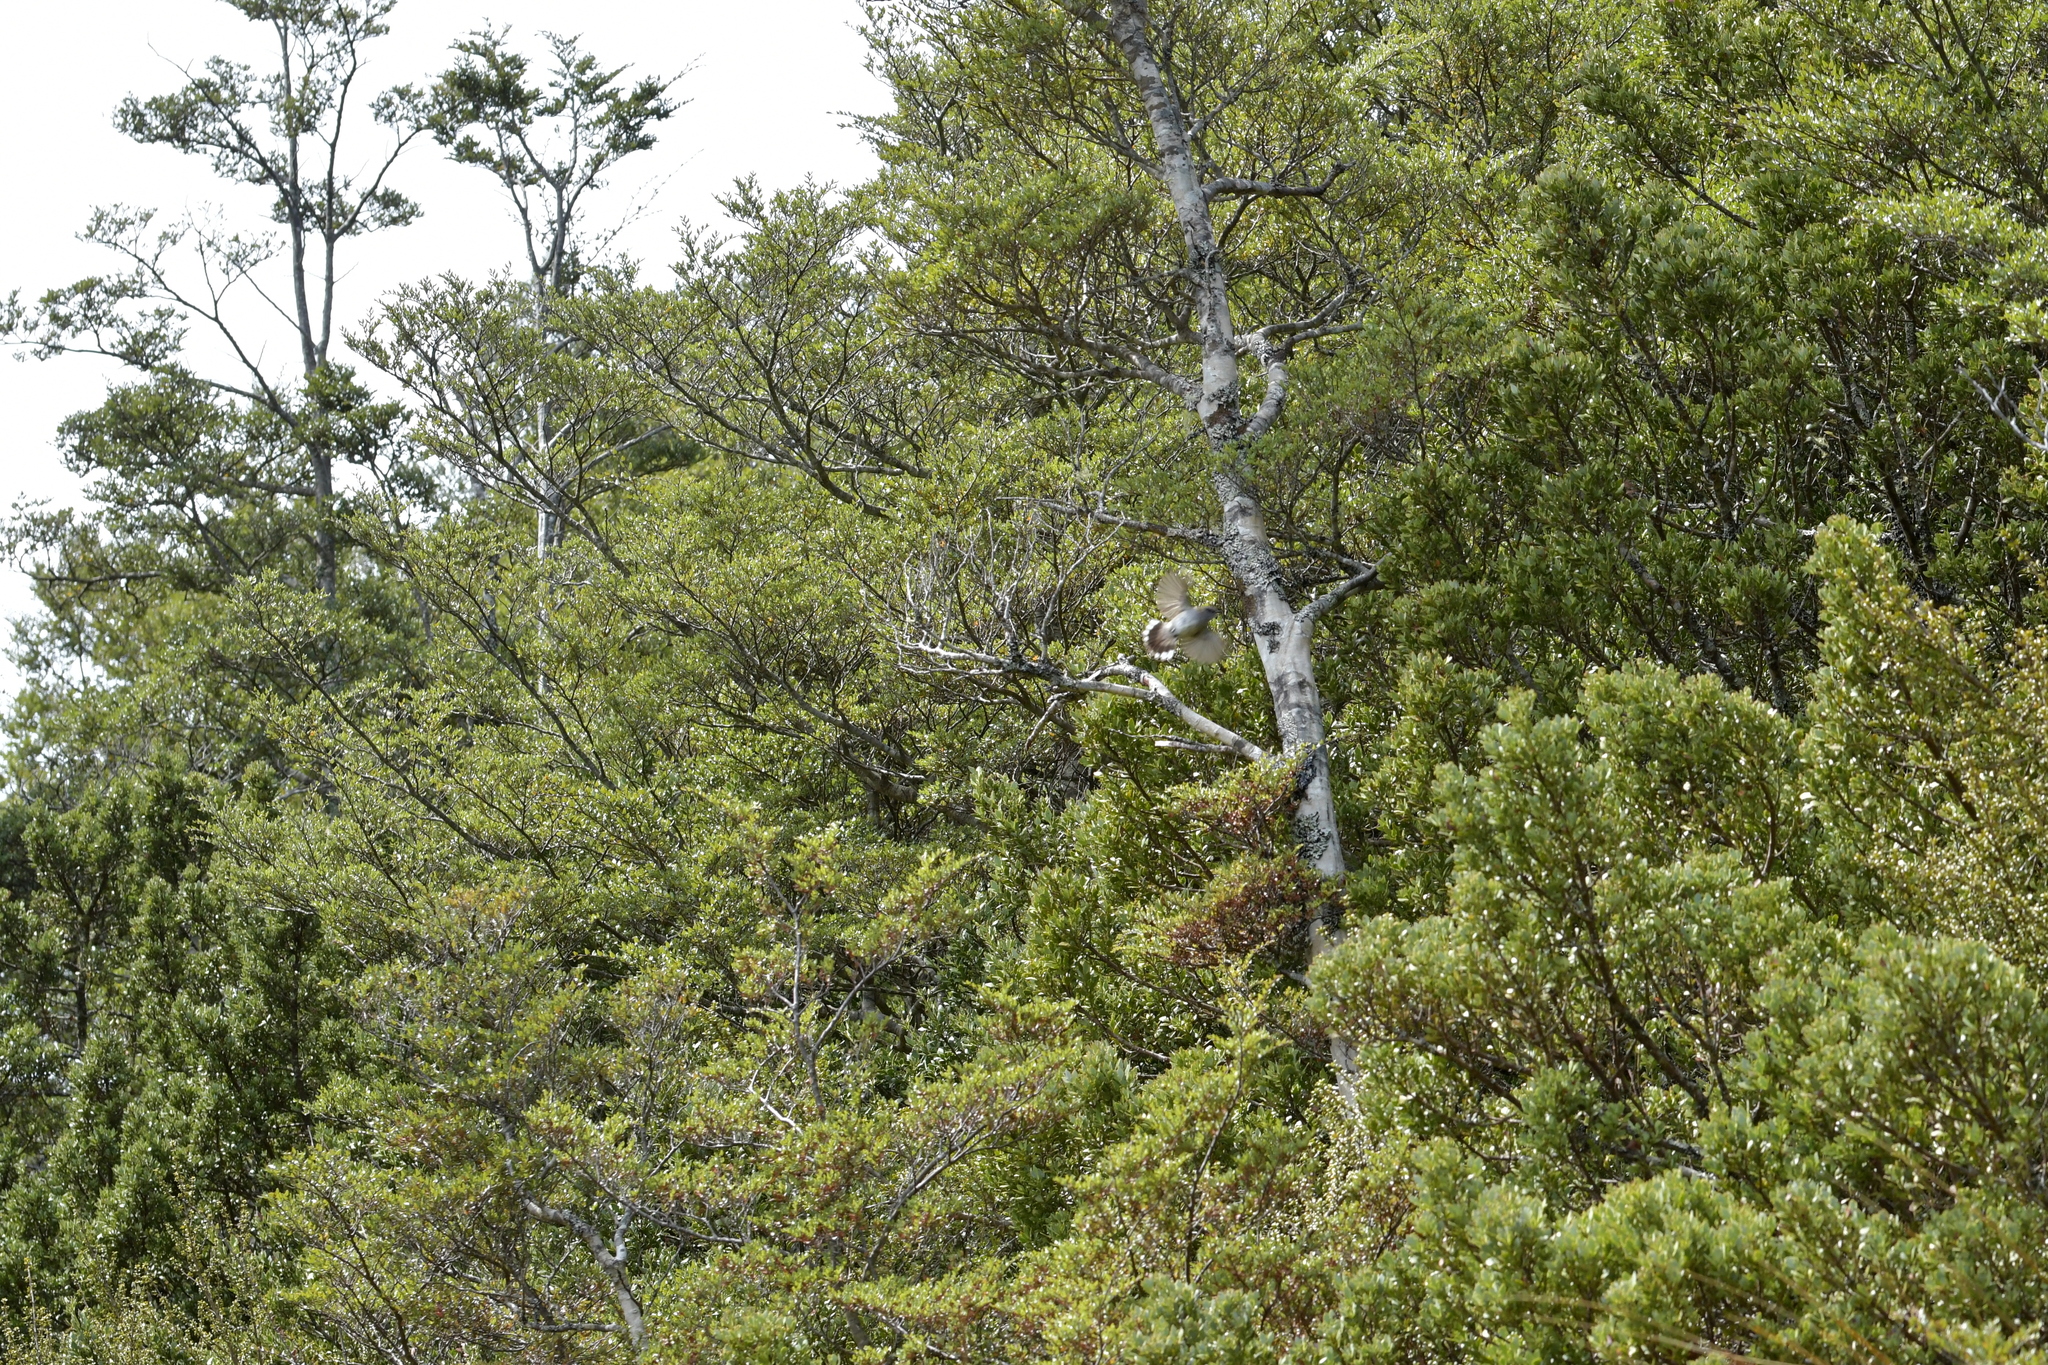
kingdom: Animalia
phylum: Chordata
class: Aves
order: Passeriformes
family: Acanthizidae
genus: Gerygone
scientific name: Gerygone igata
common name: Grey gerygone
